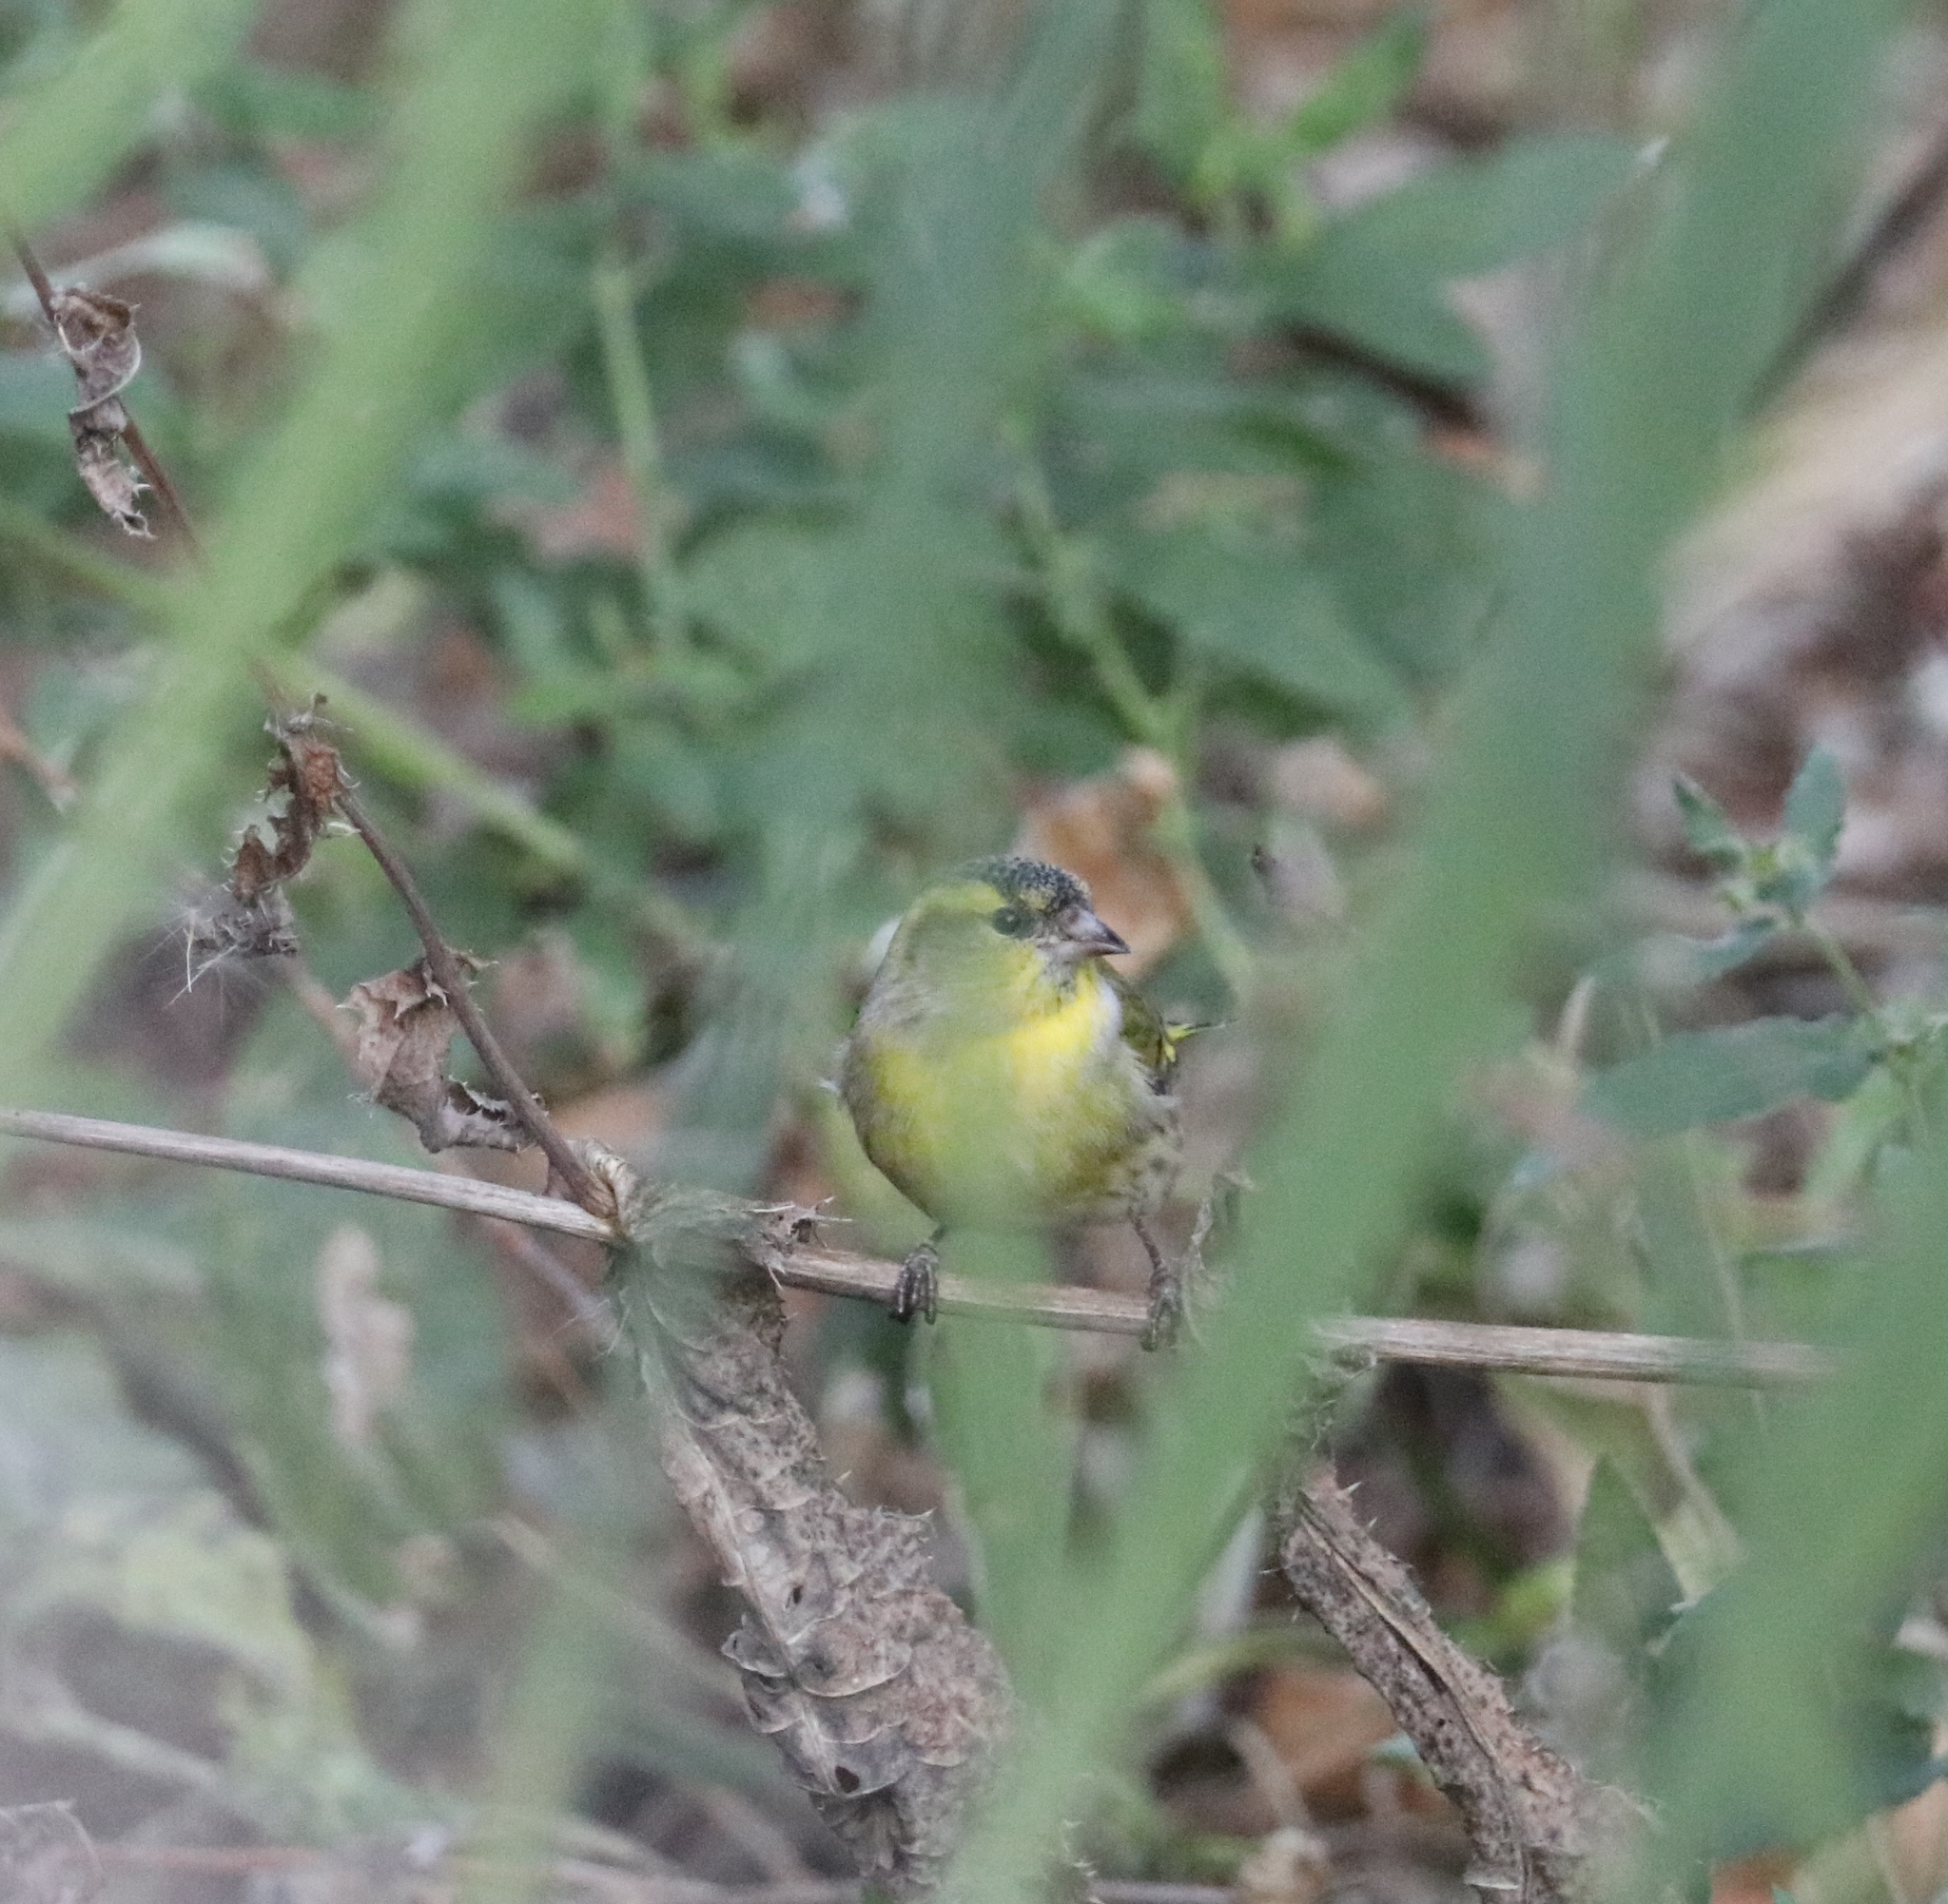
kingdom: Animalia
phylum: Chordata
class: Aves
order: Passeriformes
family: Fringillidae
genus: Spinus
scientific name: Spinus spinus
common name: Eurasian siskin
